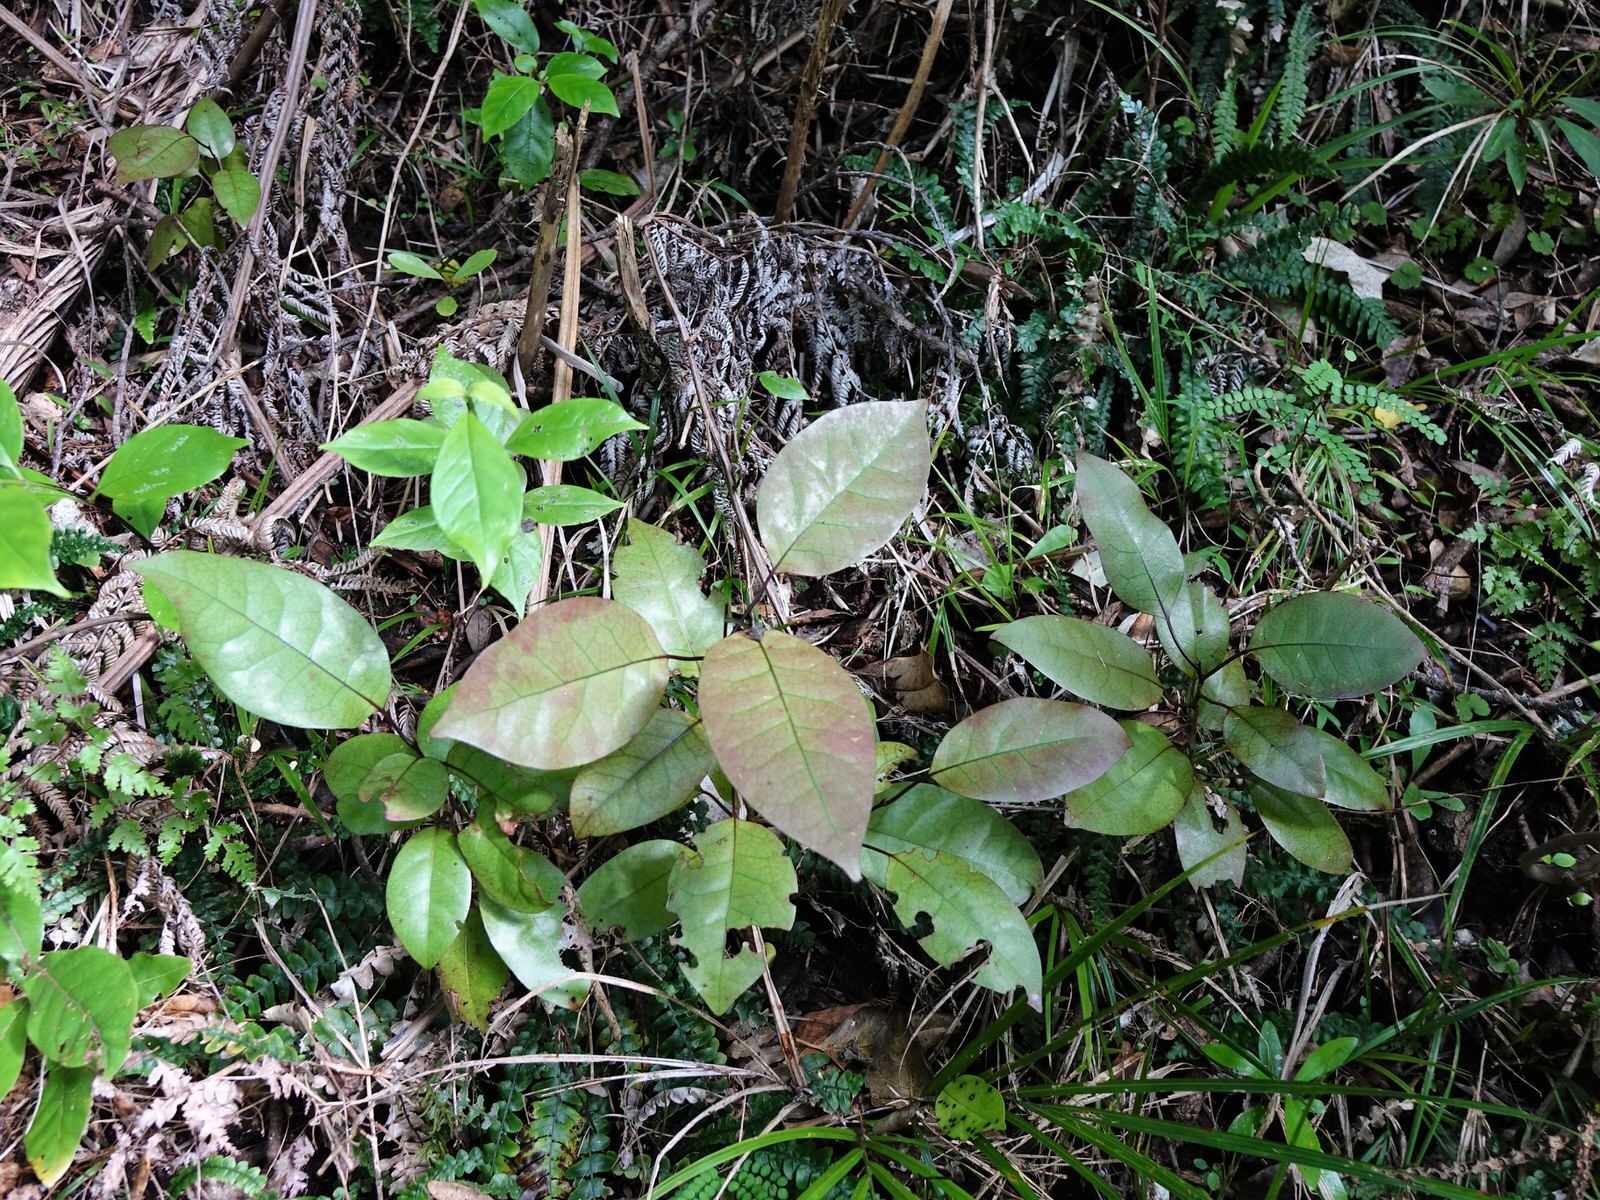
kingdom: Plantae
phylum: Tracheophyta
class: Magnoliopsida
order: Laurales
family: Lauraceae
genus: Litsea
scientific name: Litsea calicaris
